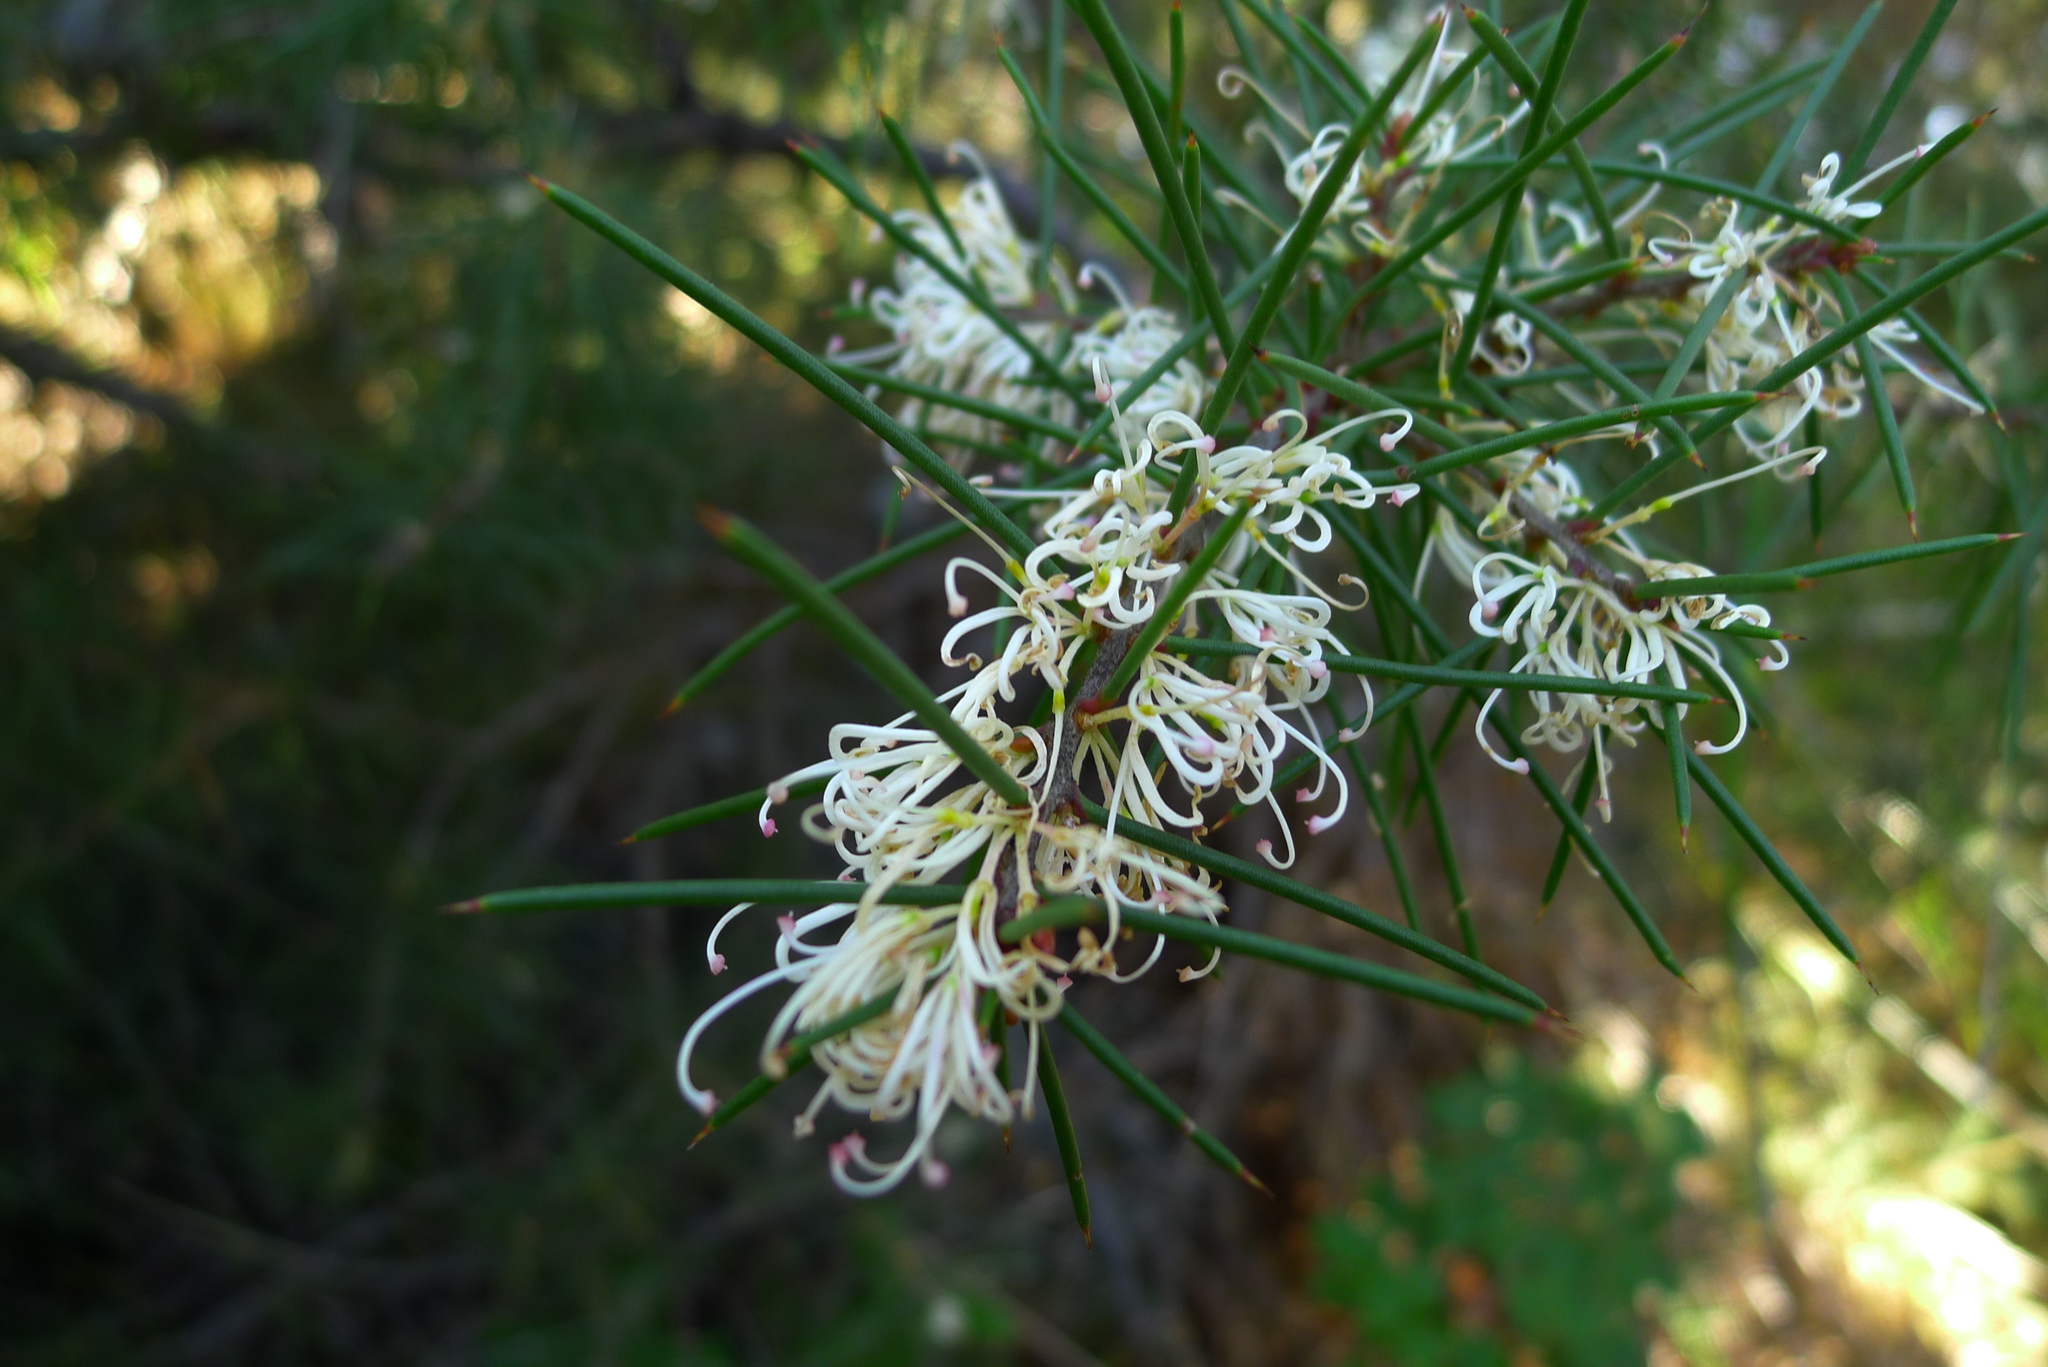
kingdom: Plantae
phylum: Tracheophyta
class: Magnoliopsida
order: Proteales
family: Proteaceae
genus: Hakea
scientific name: Hakea sericea
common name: Needle bush
